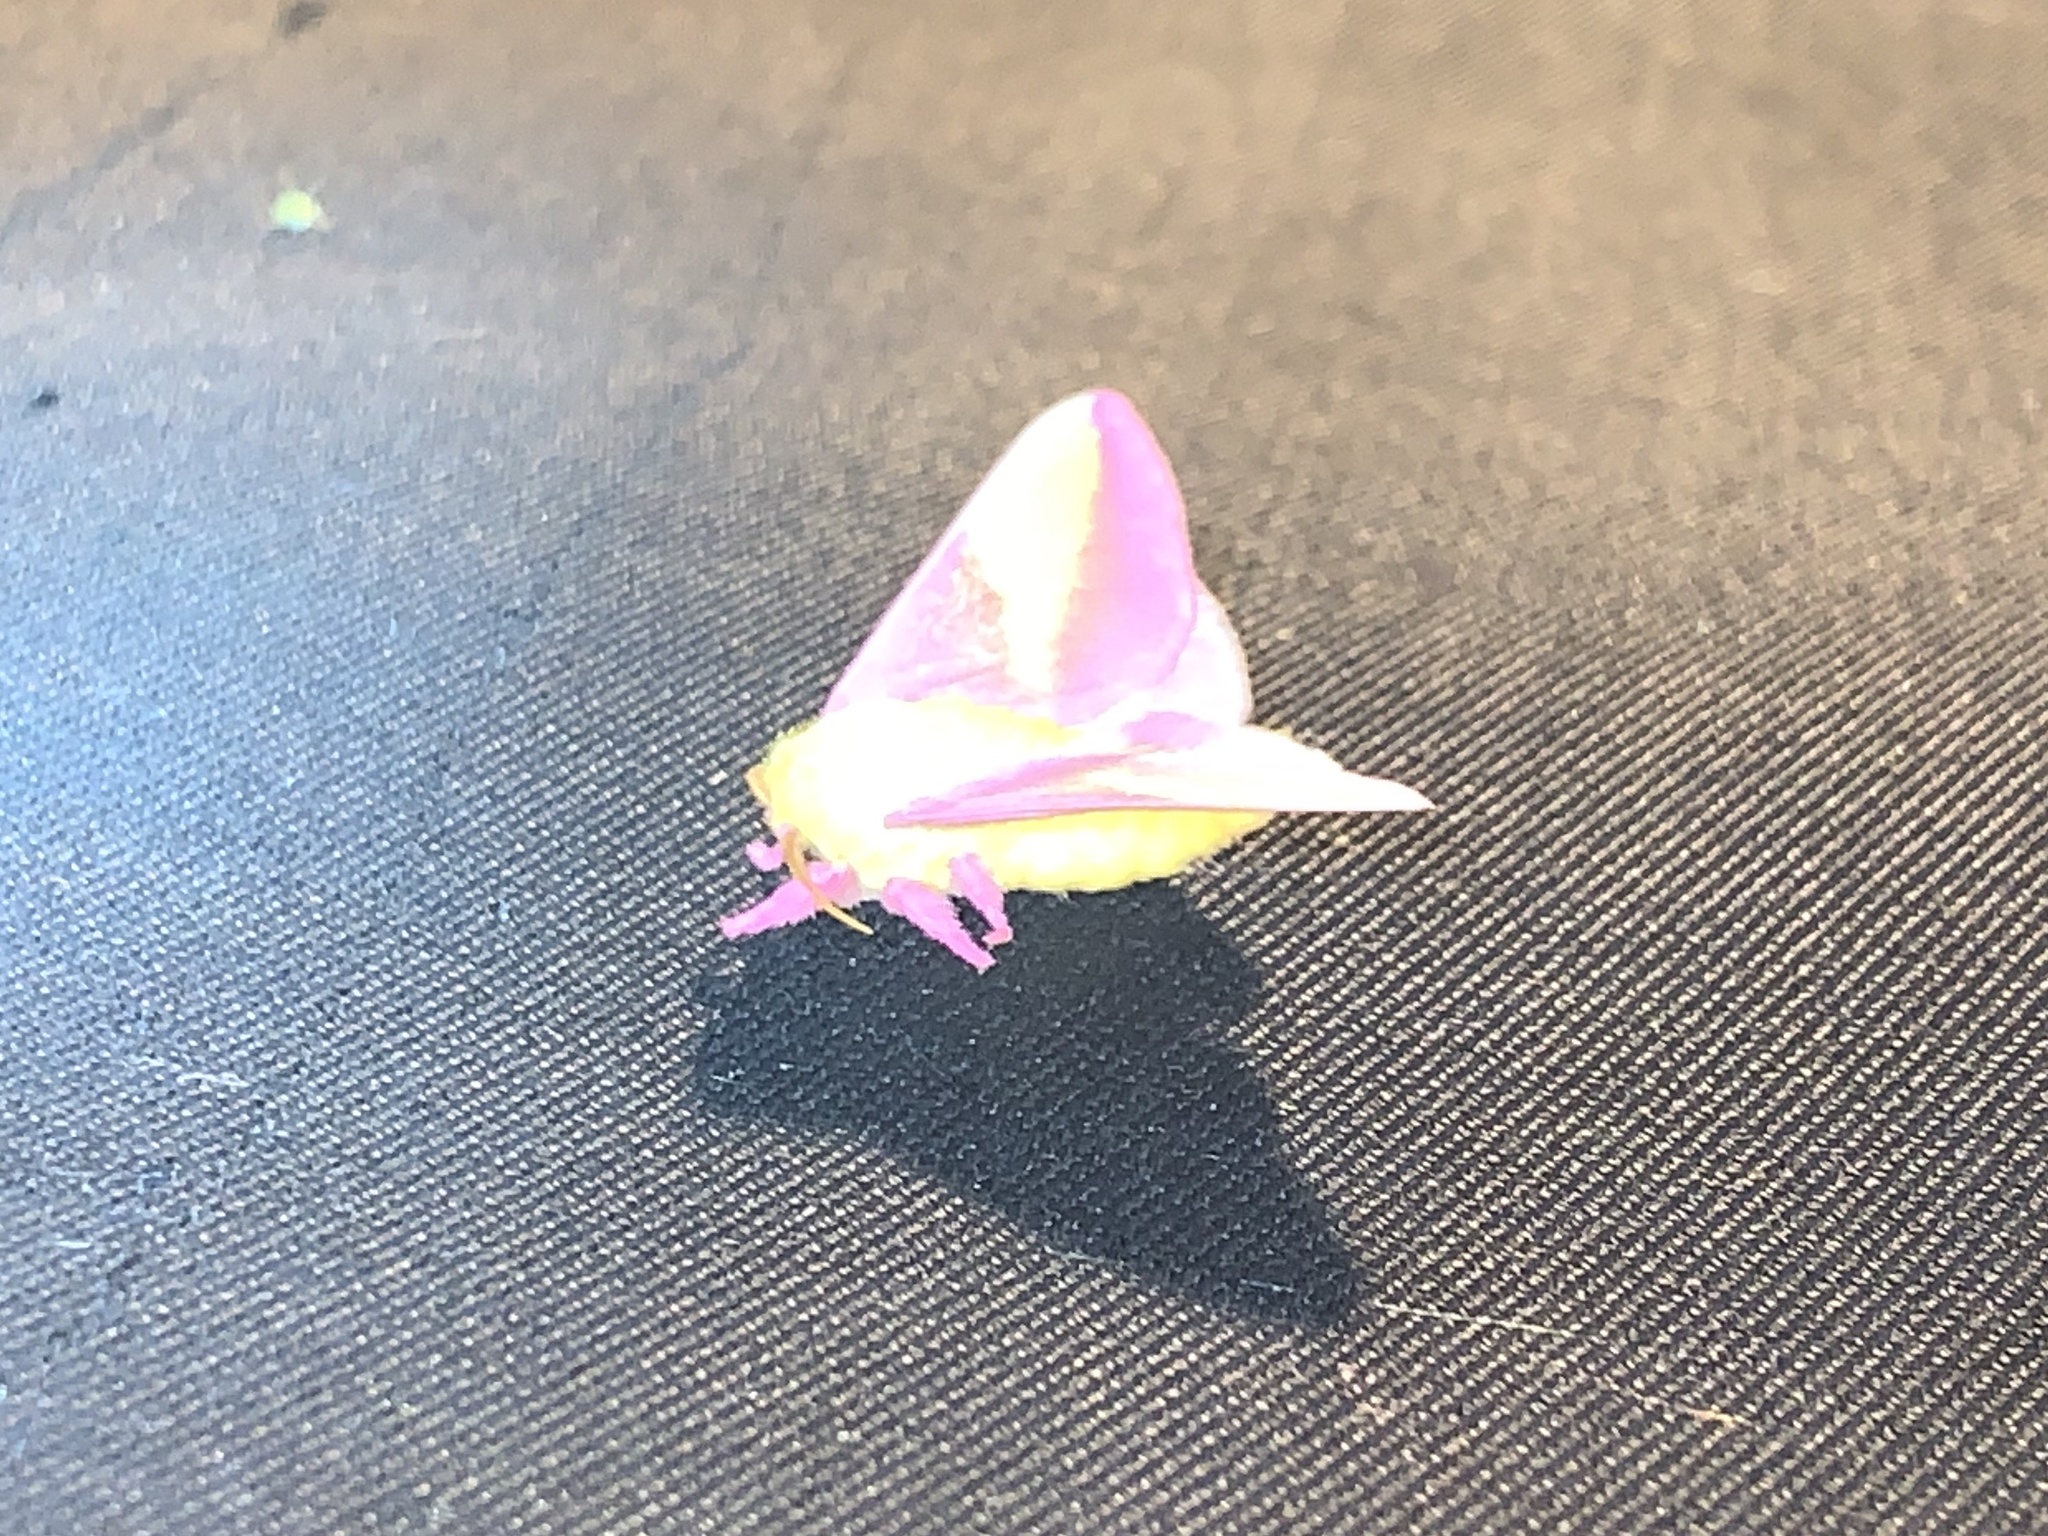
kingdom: Animalia
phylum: Arthropoda
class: Insecta
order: Lepidoptera
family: Saturniidae
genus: Dryocampa
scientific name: Dryocampa rubicunda
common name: Rosy maple moth
